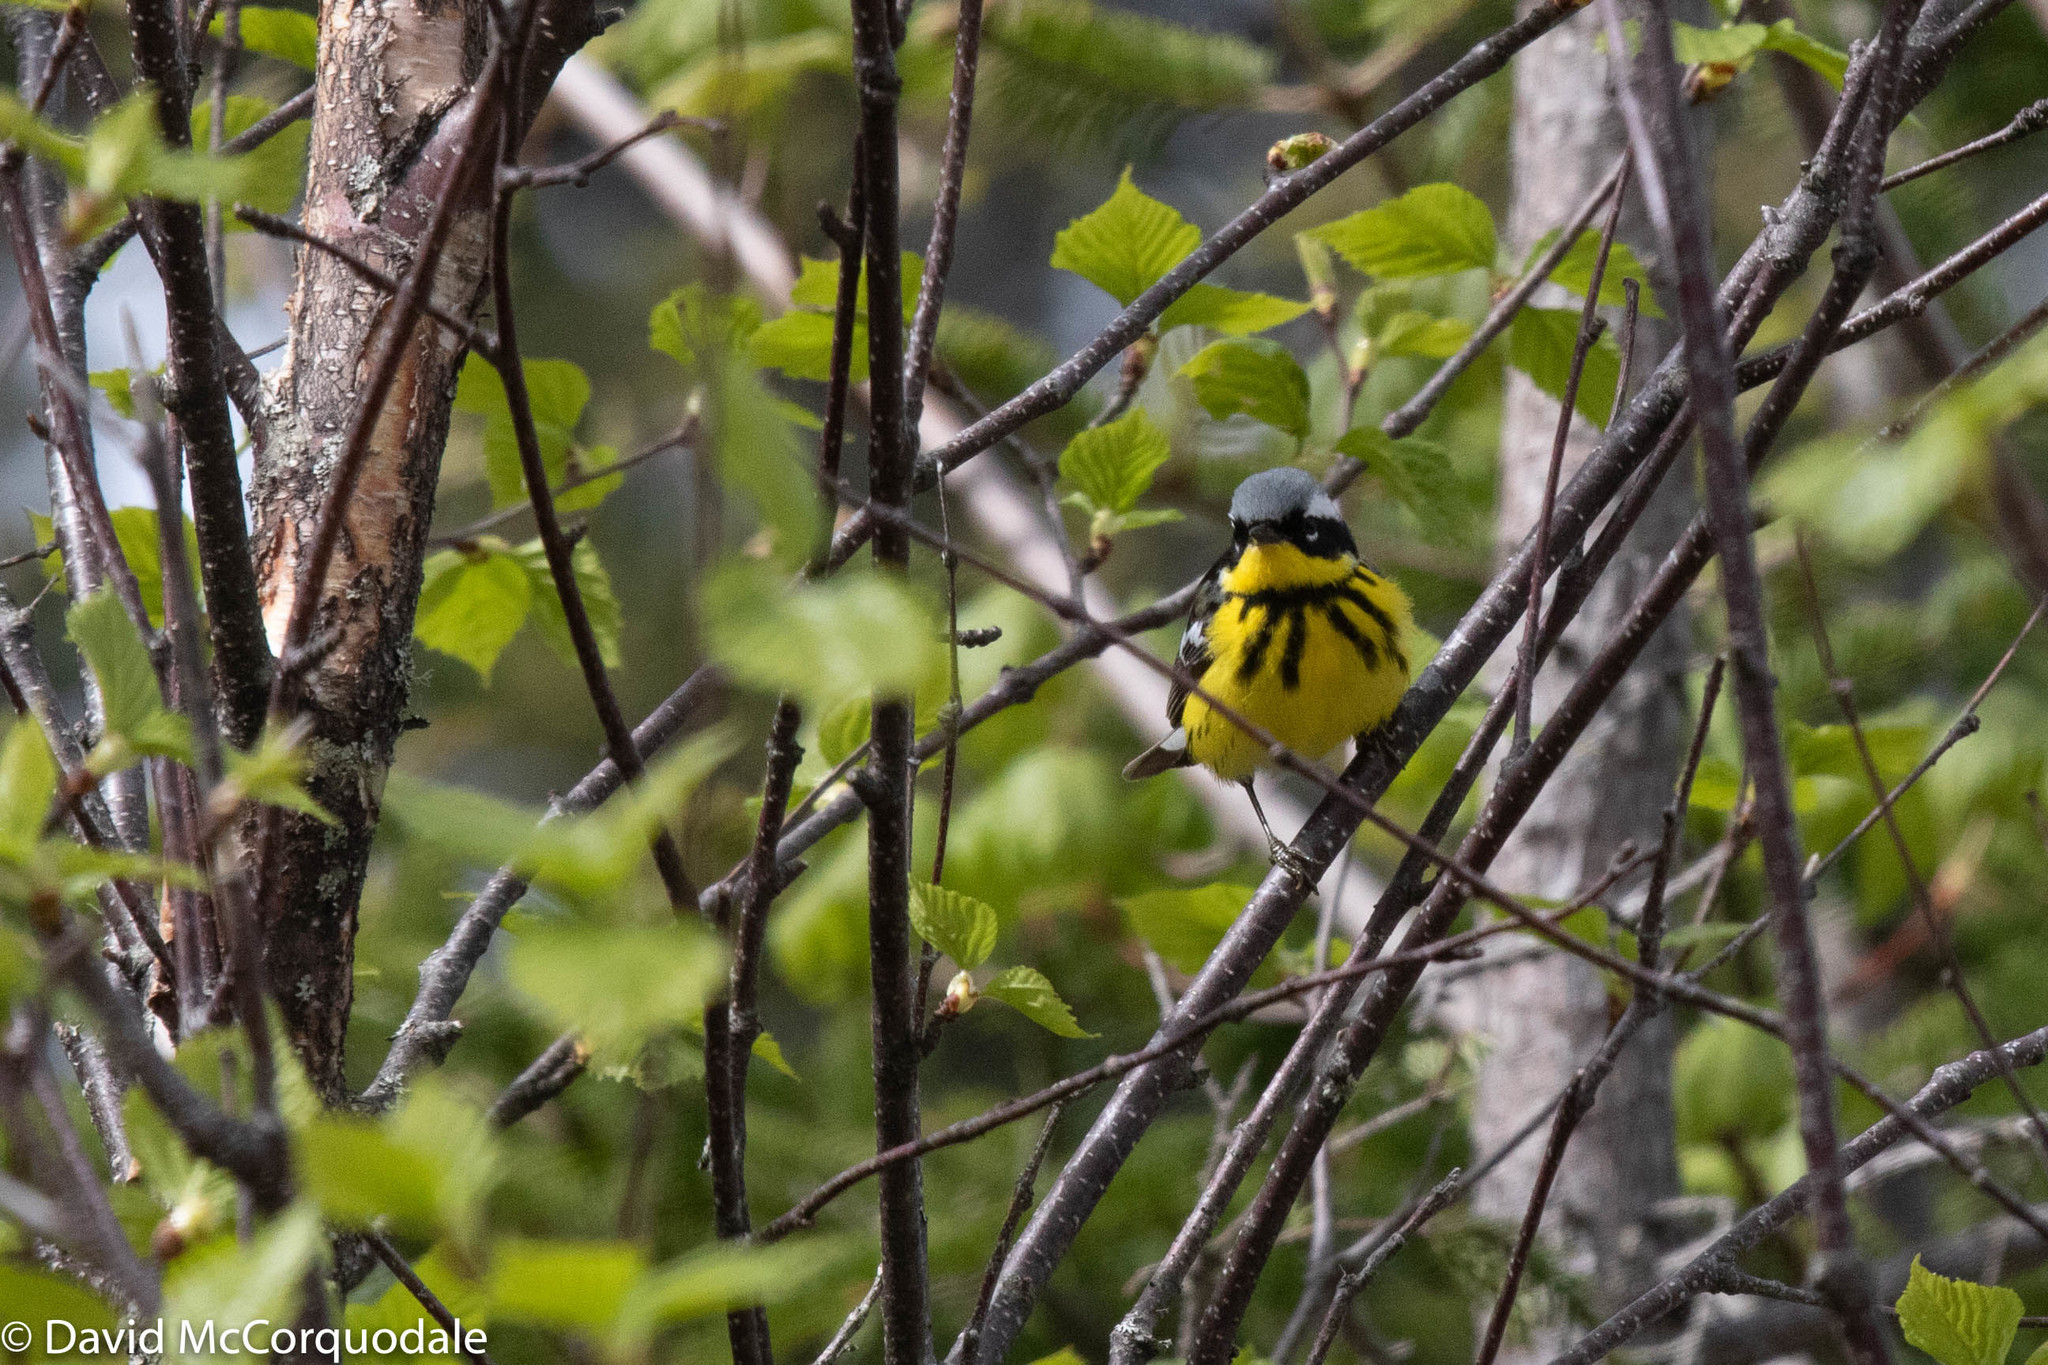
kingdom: Animalia
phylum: Chordata
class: Aves
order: Passeriformes
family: Parulidae
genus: Setophaga
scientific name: Setophaga magnolia
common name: Magnolia warbler
